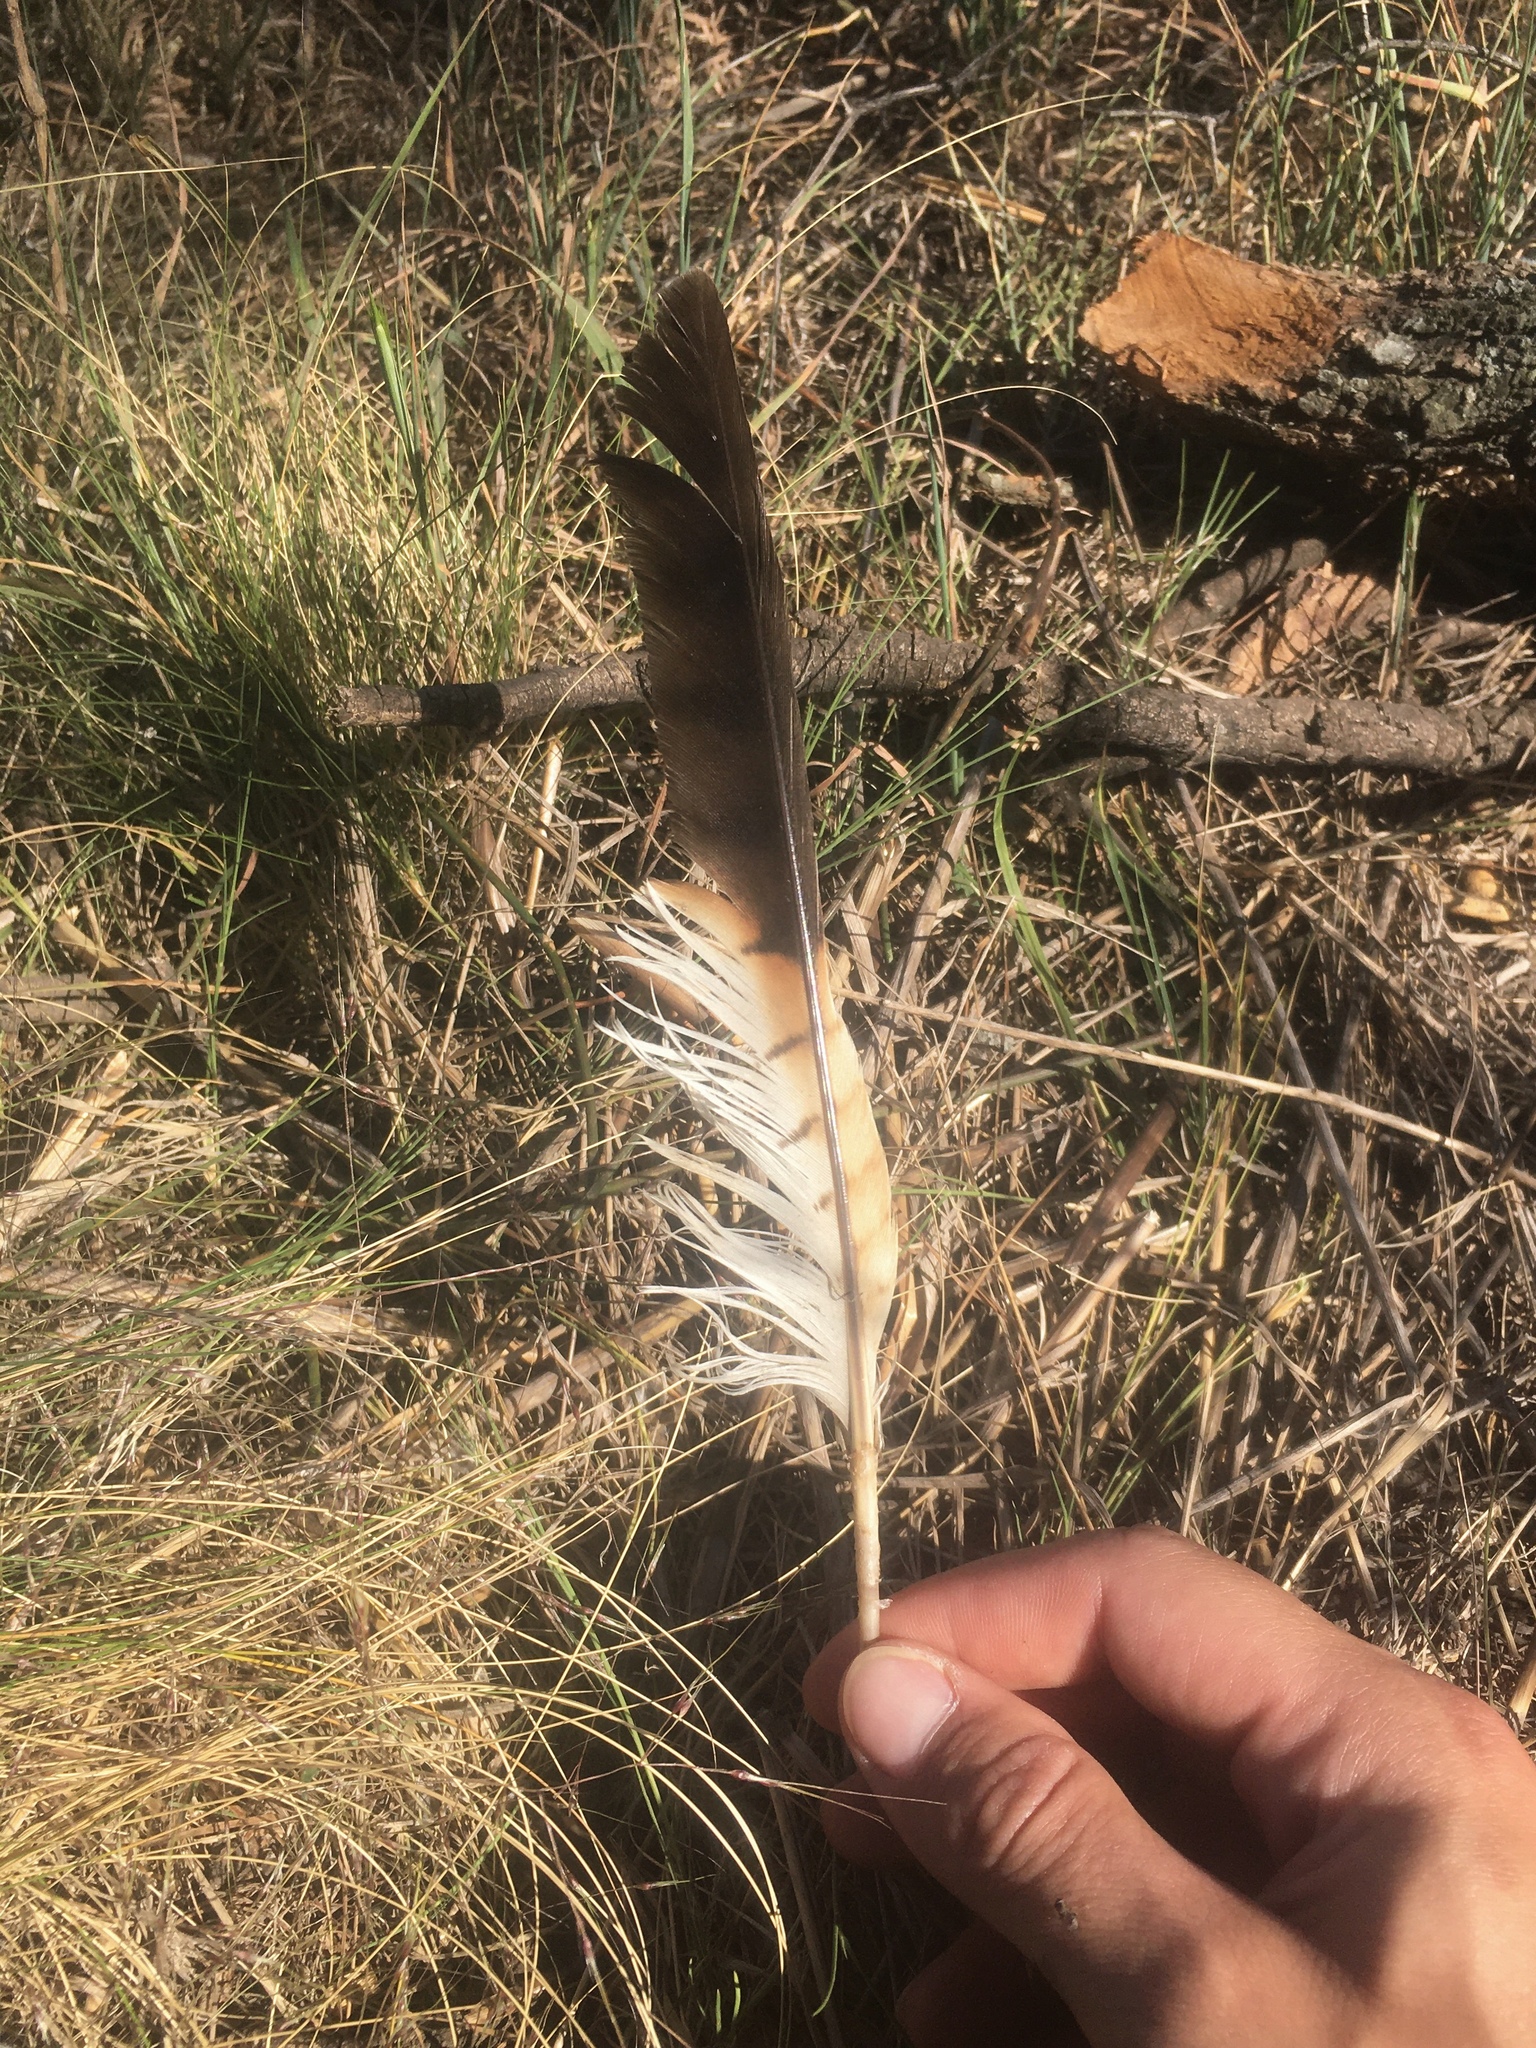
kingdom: Animalia
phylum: Chordata
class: Aves
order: Accipitriformes
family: Accipitridae
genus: Rupornis
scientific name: Rupornis magnirostris
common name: Roadside hawk
